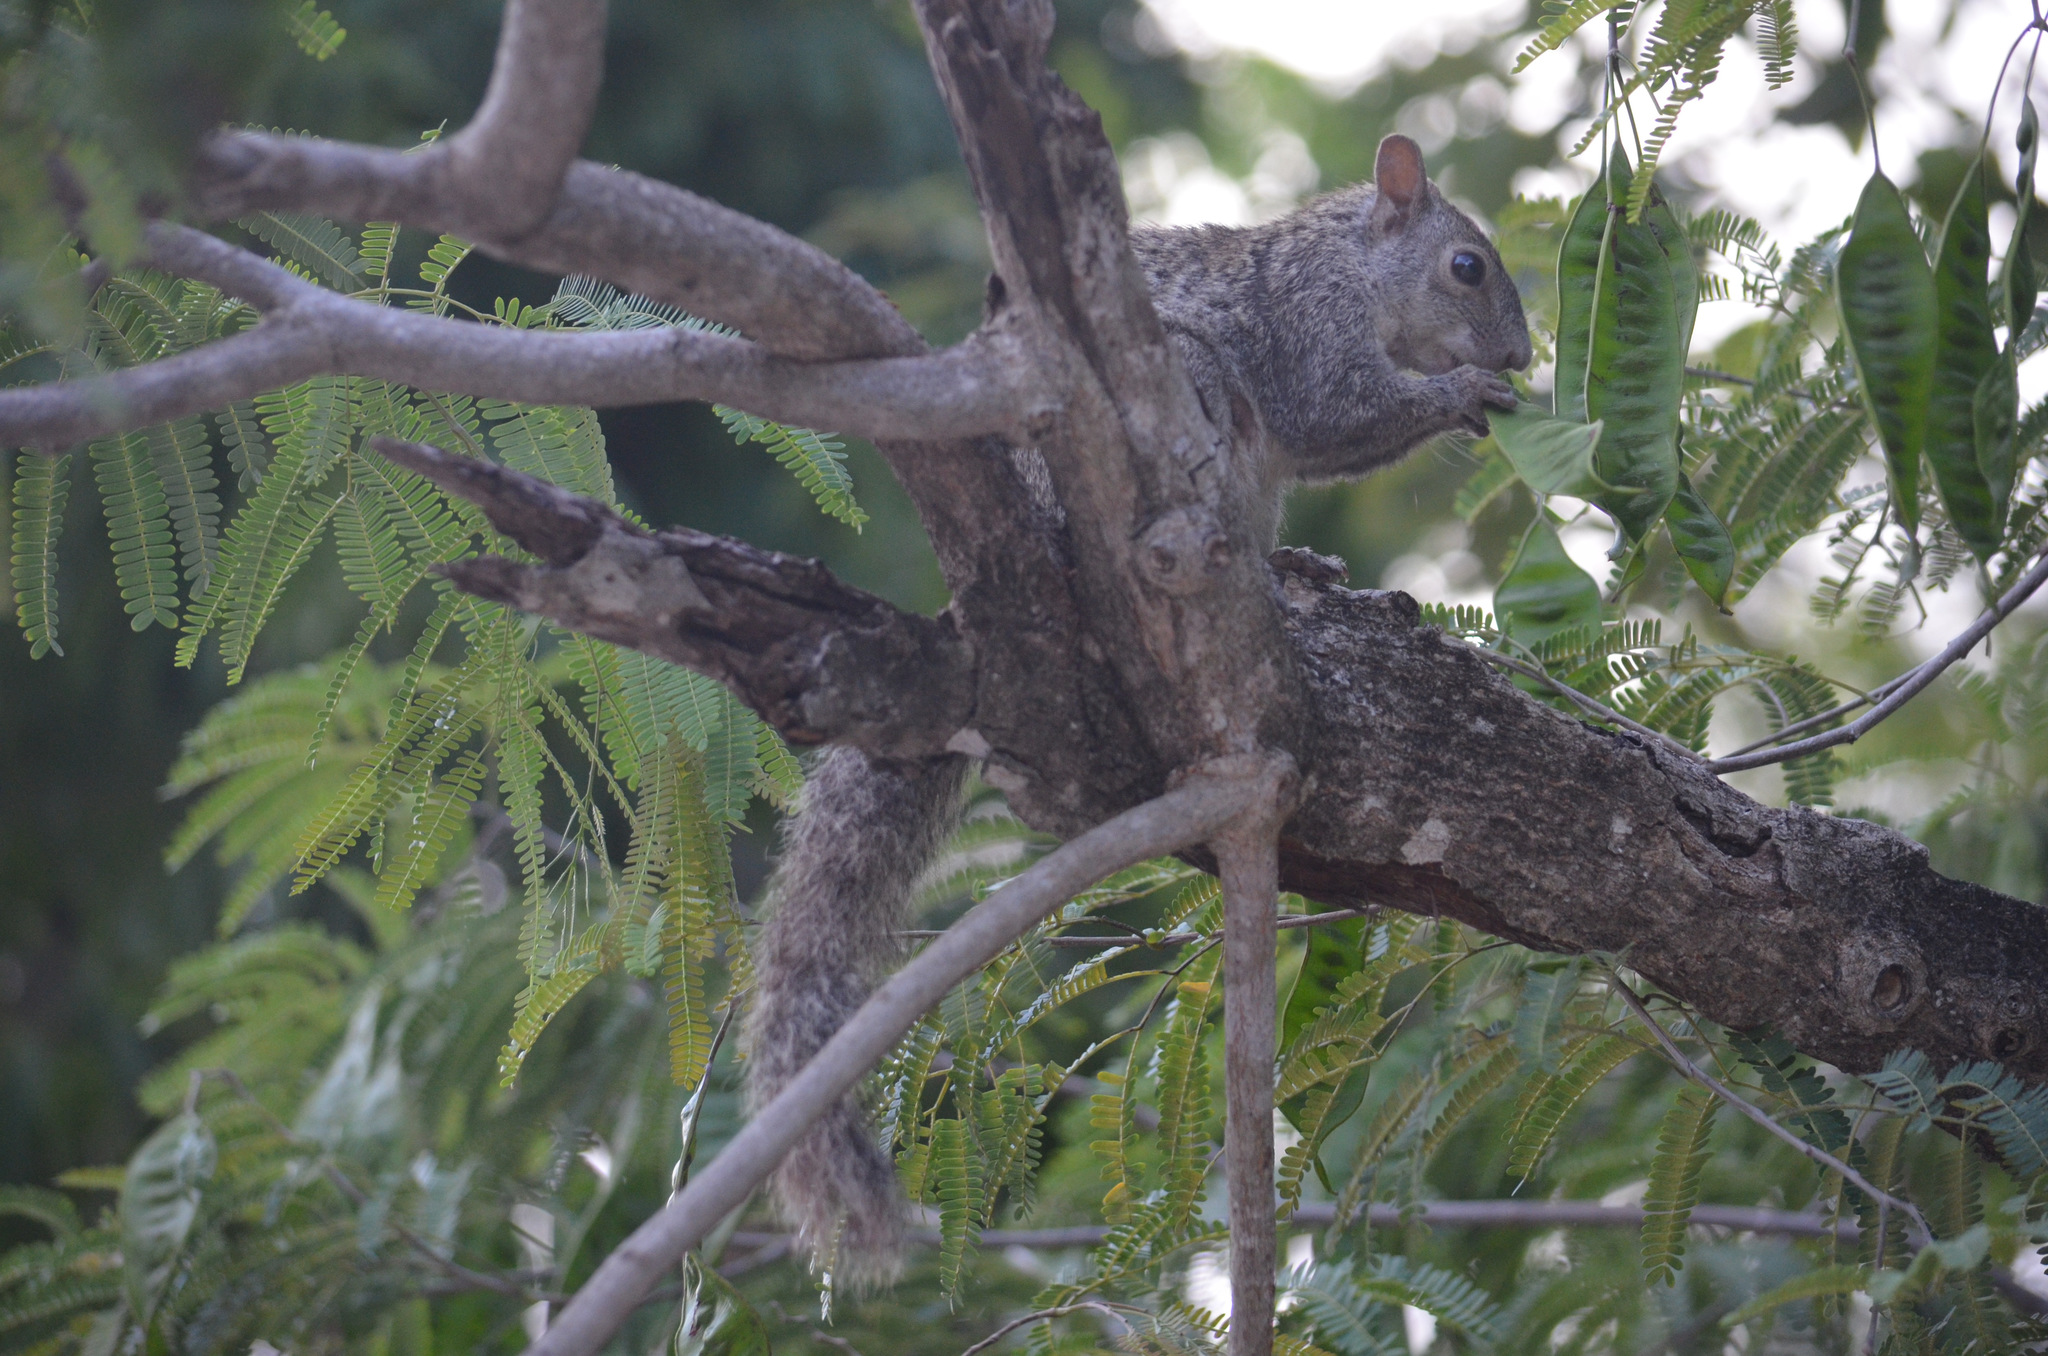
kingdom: Animalia
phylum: Chordata
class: Mammalia
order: Rodentia
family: Sciuridae
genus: Sciurus
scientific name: Sciurus yucatanensis
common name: Yucatan squirrel
